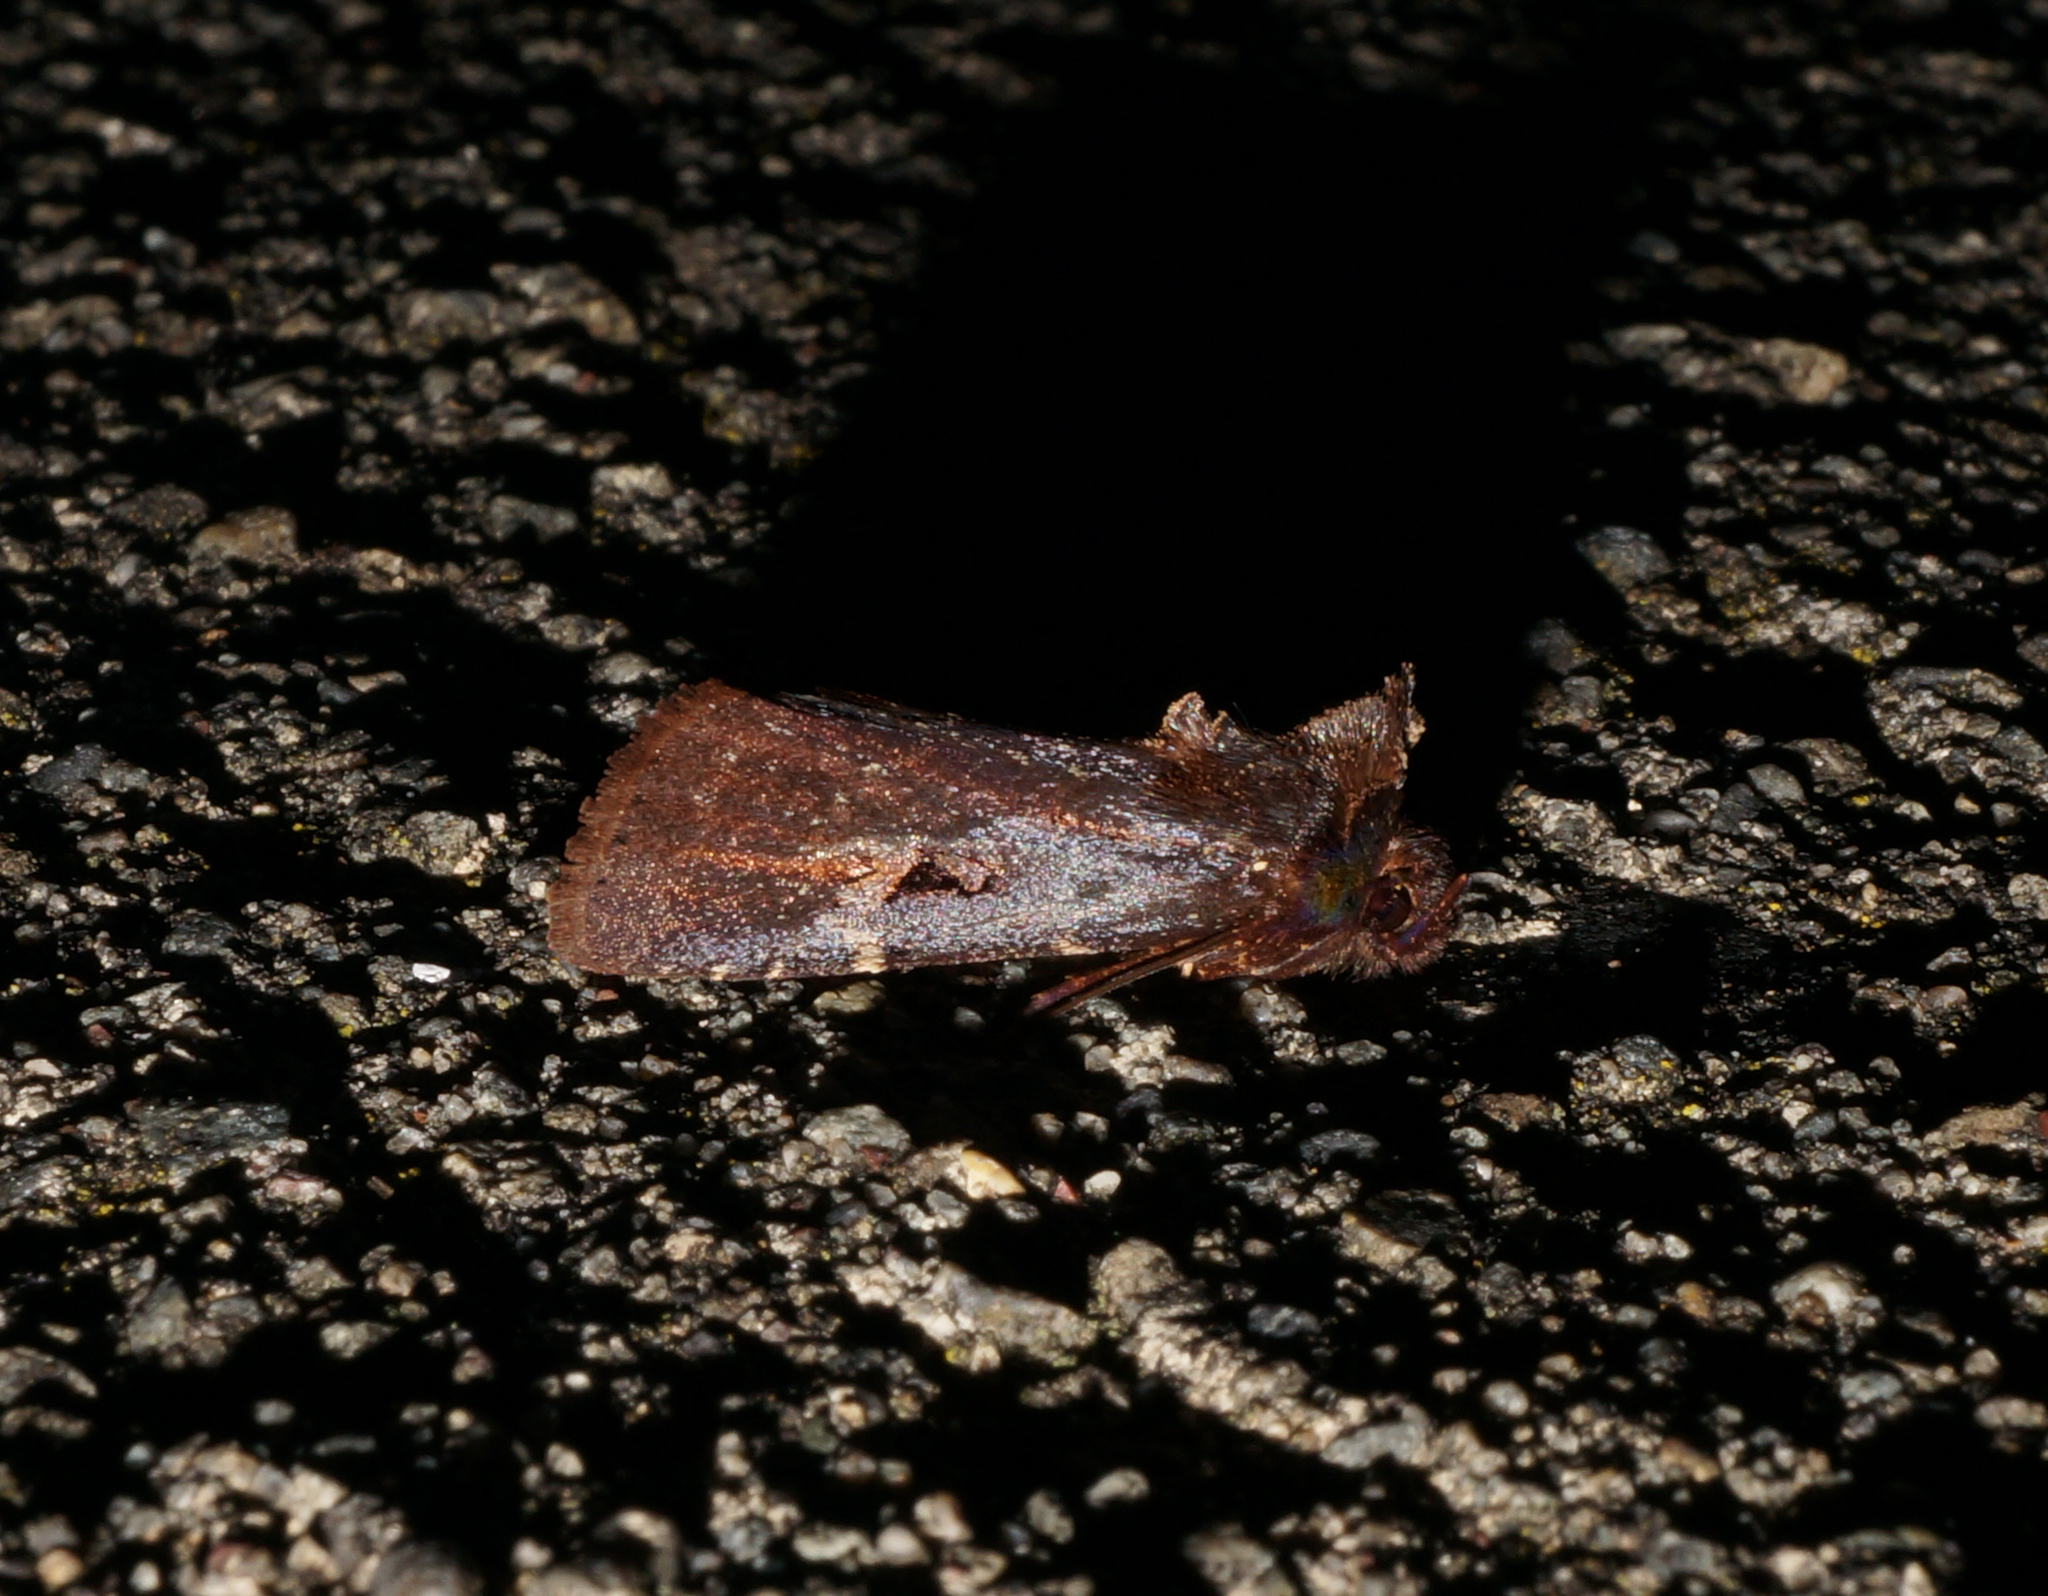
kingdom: Animalia
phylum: Arthropoda
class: Insecta
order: Lepidoptera
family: Noctuidae
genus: Austramathes
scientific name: Austramathes purpurea
